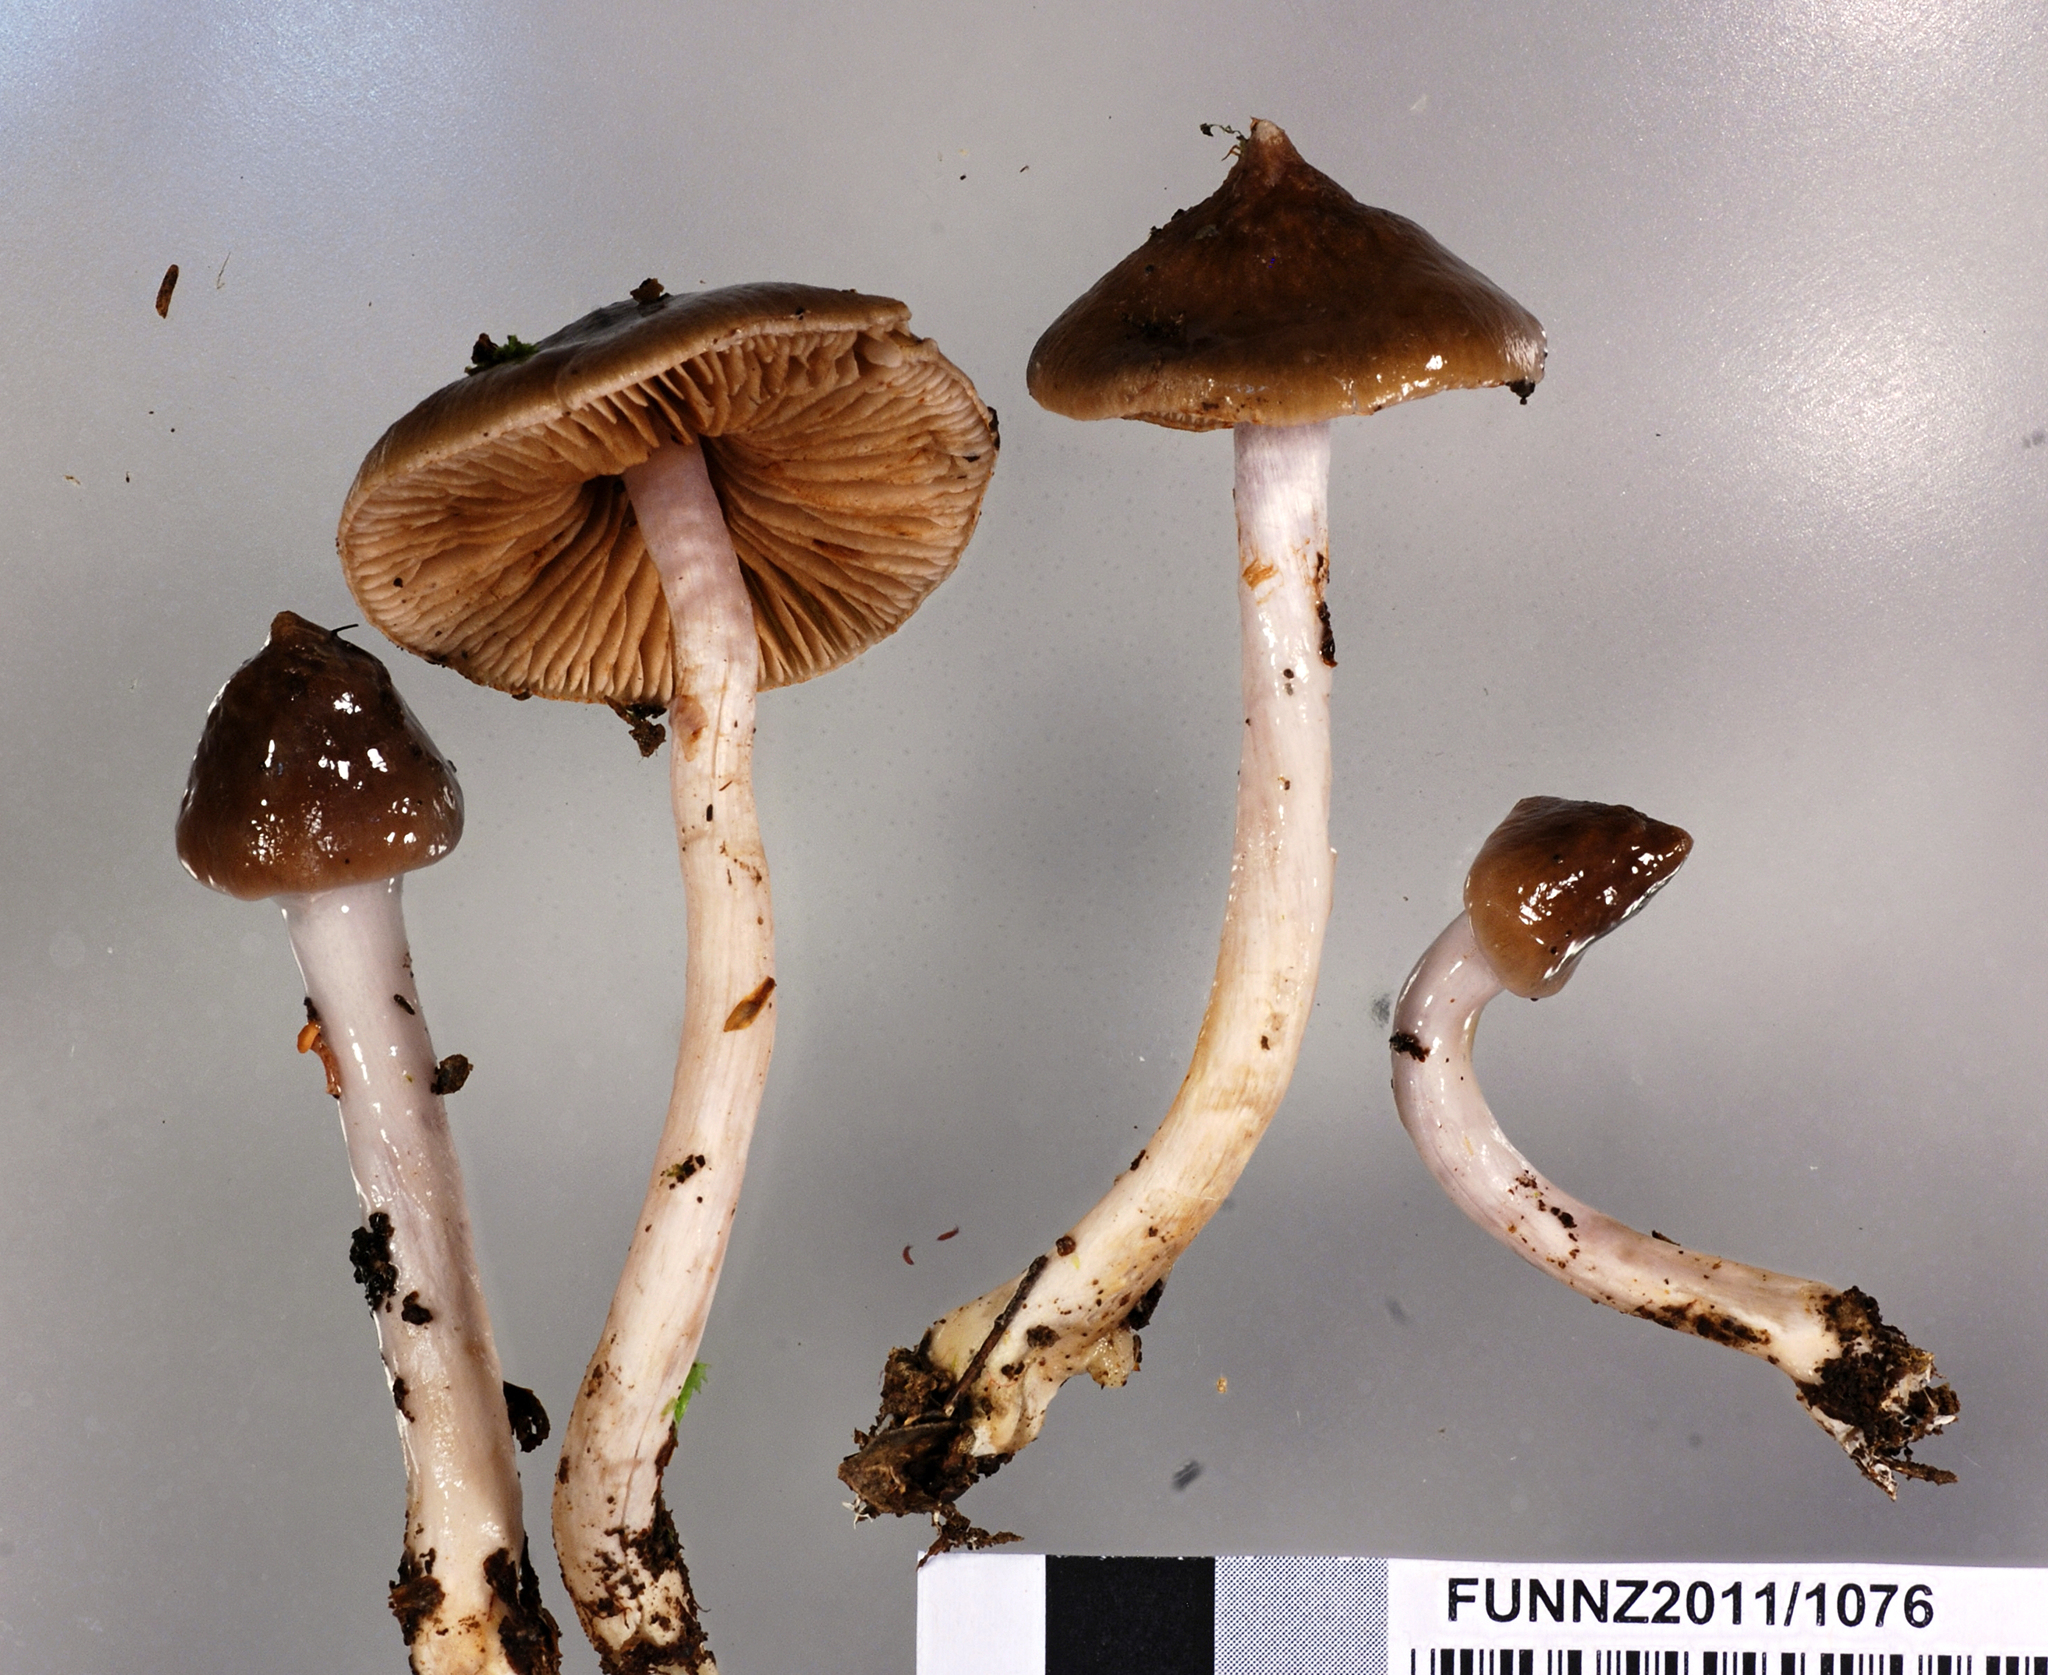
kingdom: Fungi
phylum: Basidiomycota
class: Agaricomycetes
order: Agaricales
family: Cortinariaceae
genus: Cortinarius
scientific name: Cortinarius cucumeris
